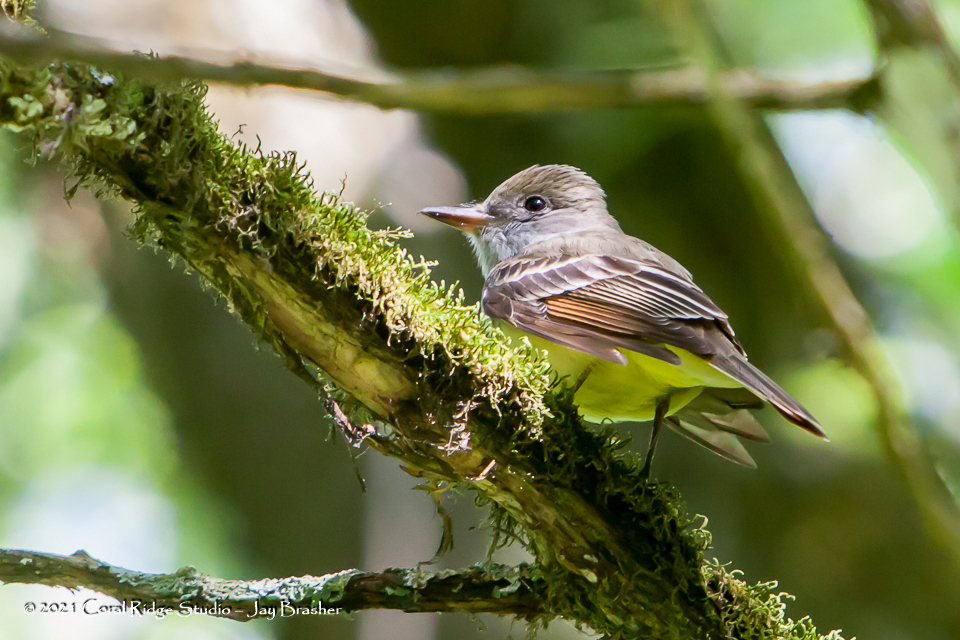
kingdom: Animalia
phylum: Chordata
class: Aves
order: Passeriformes
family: Tyrannidae
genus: Myiarchus
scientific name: Myiarchus crinitus
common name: Great crested flycatcher
